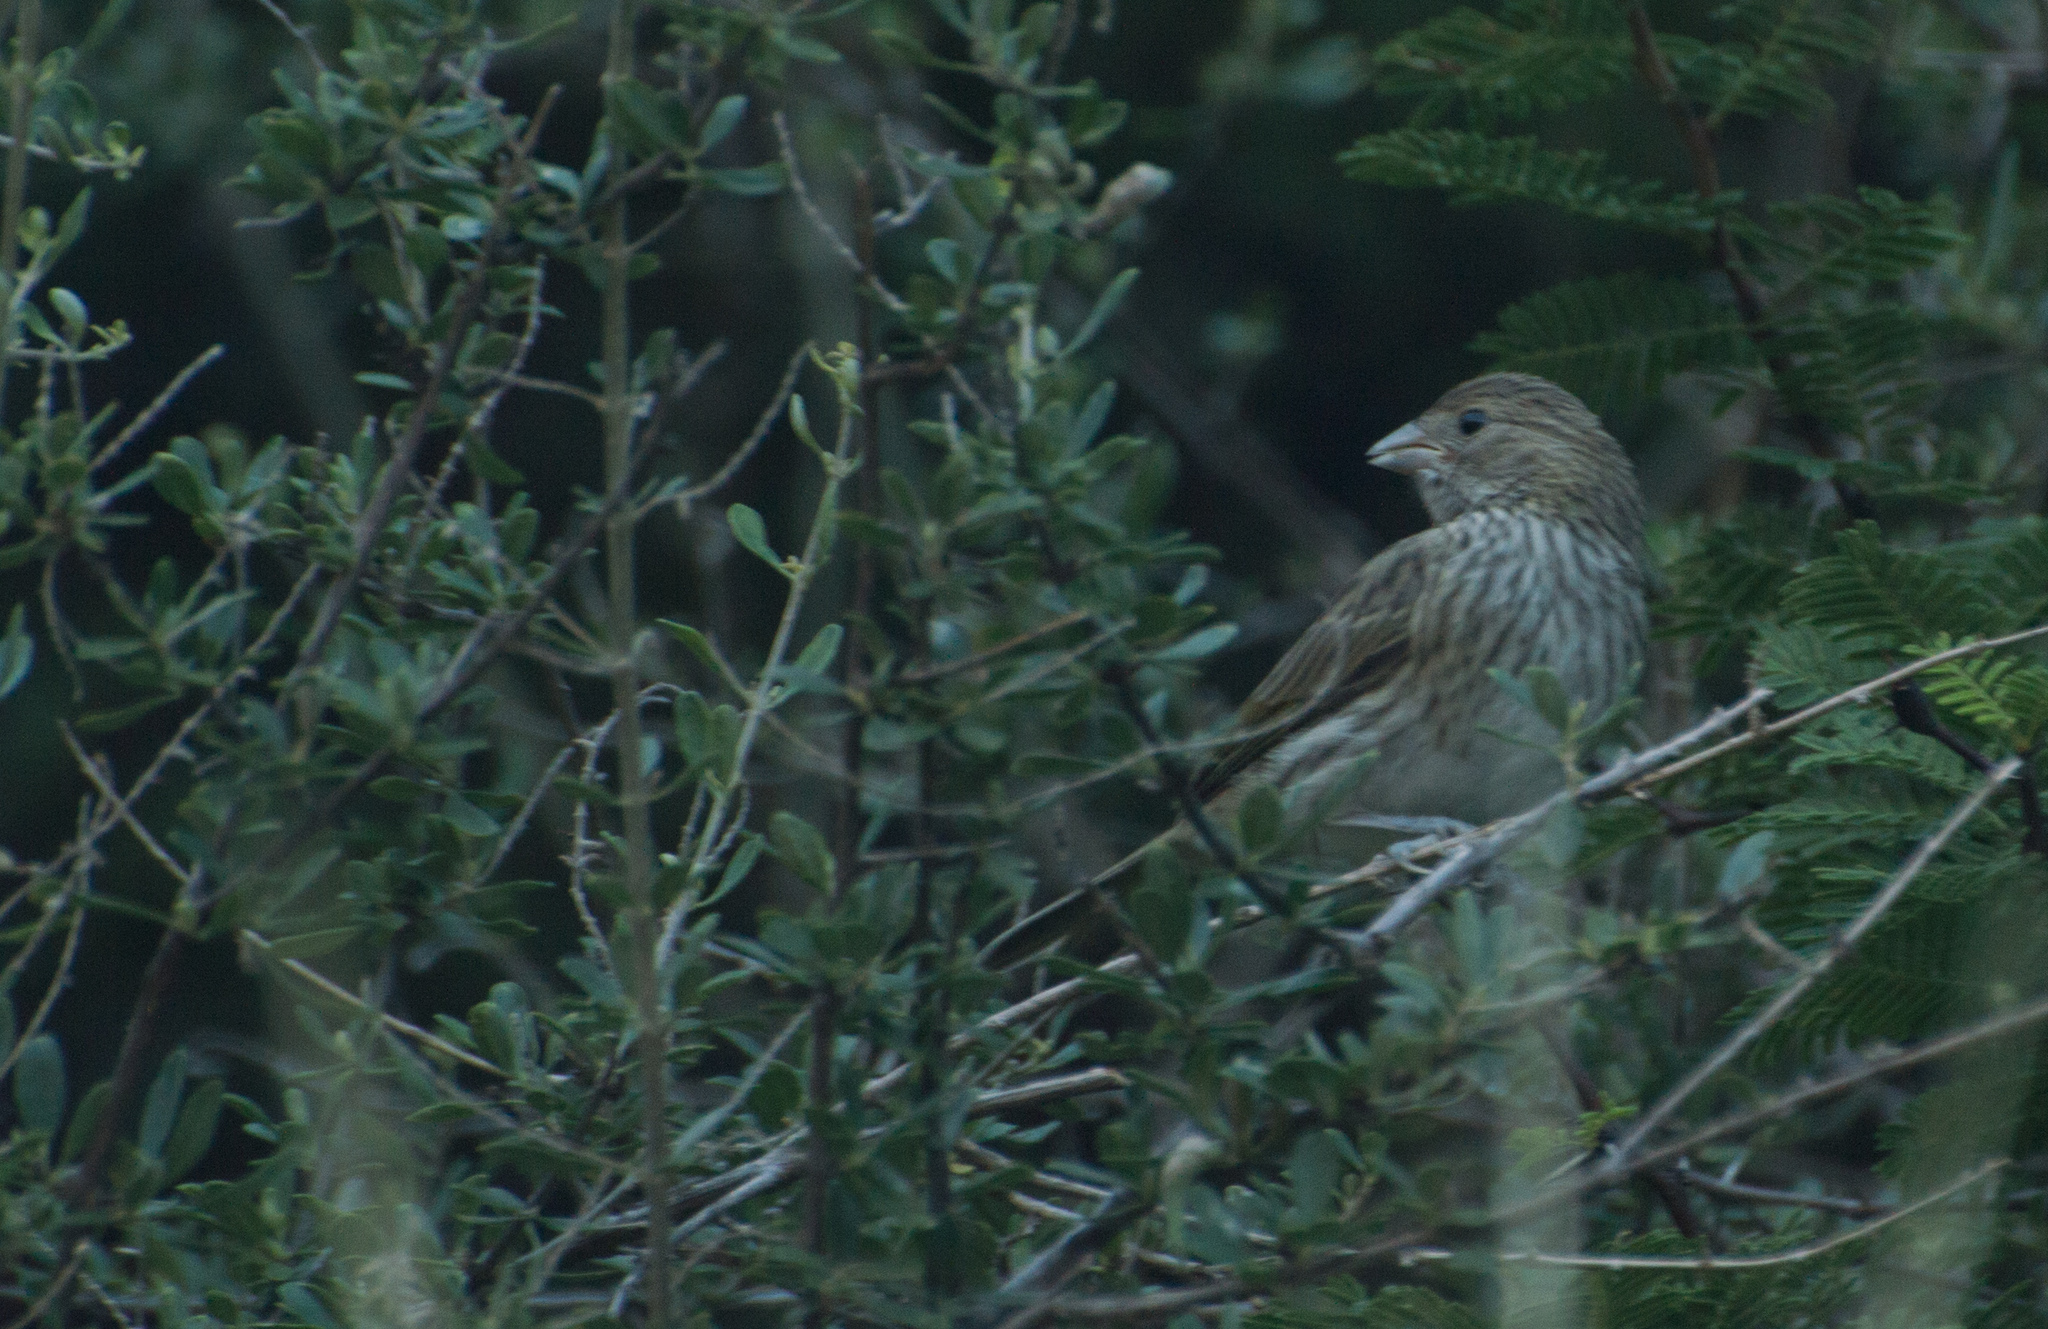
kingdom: Animalia
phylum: Chordata
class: Aves
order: Passeriformes
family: Thraupidae
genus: Sicalis
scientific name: Sicalis flaveola
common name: Saffron finch
